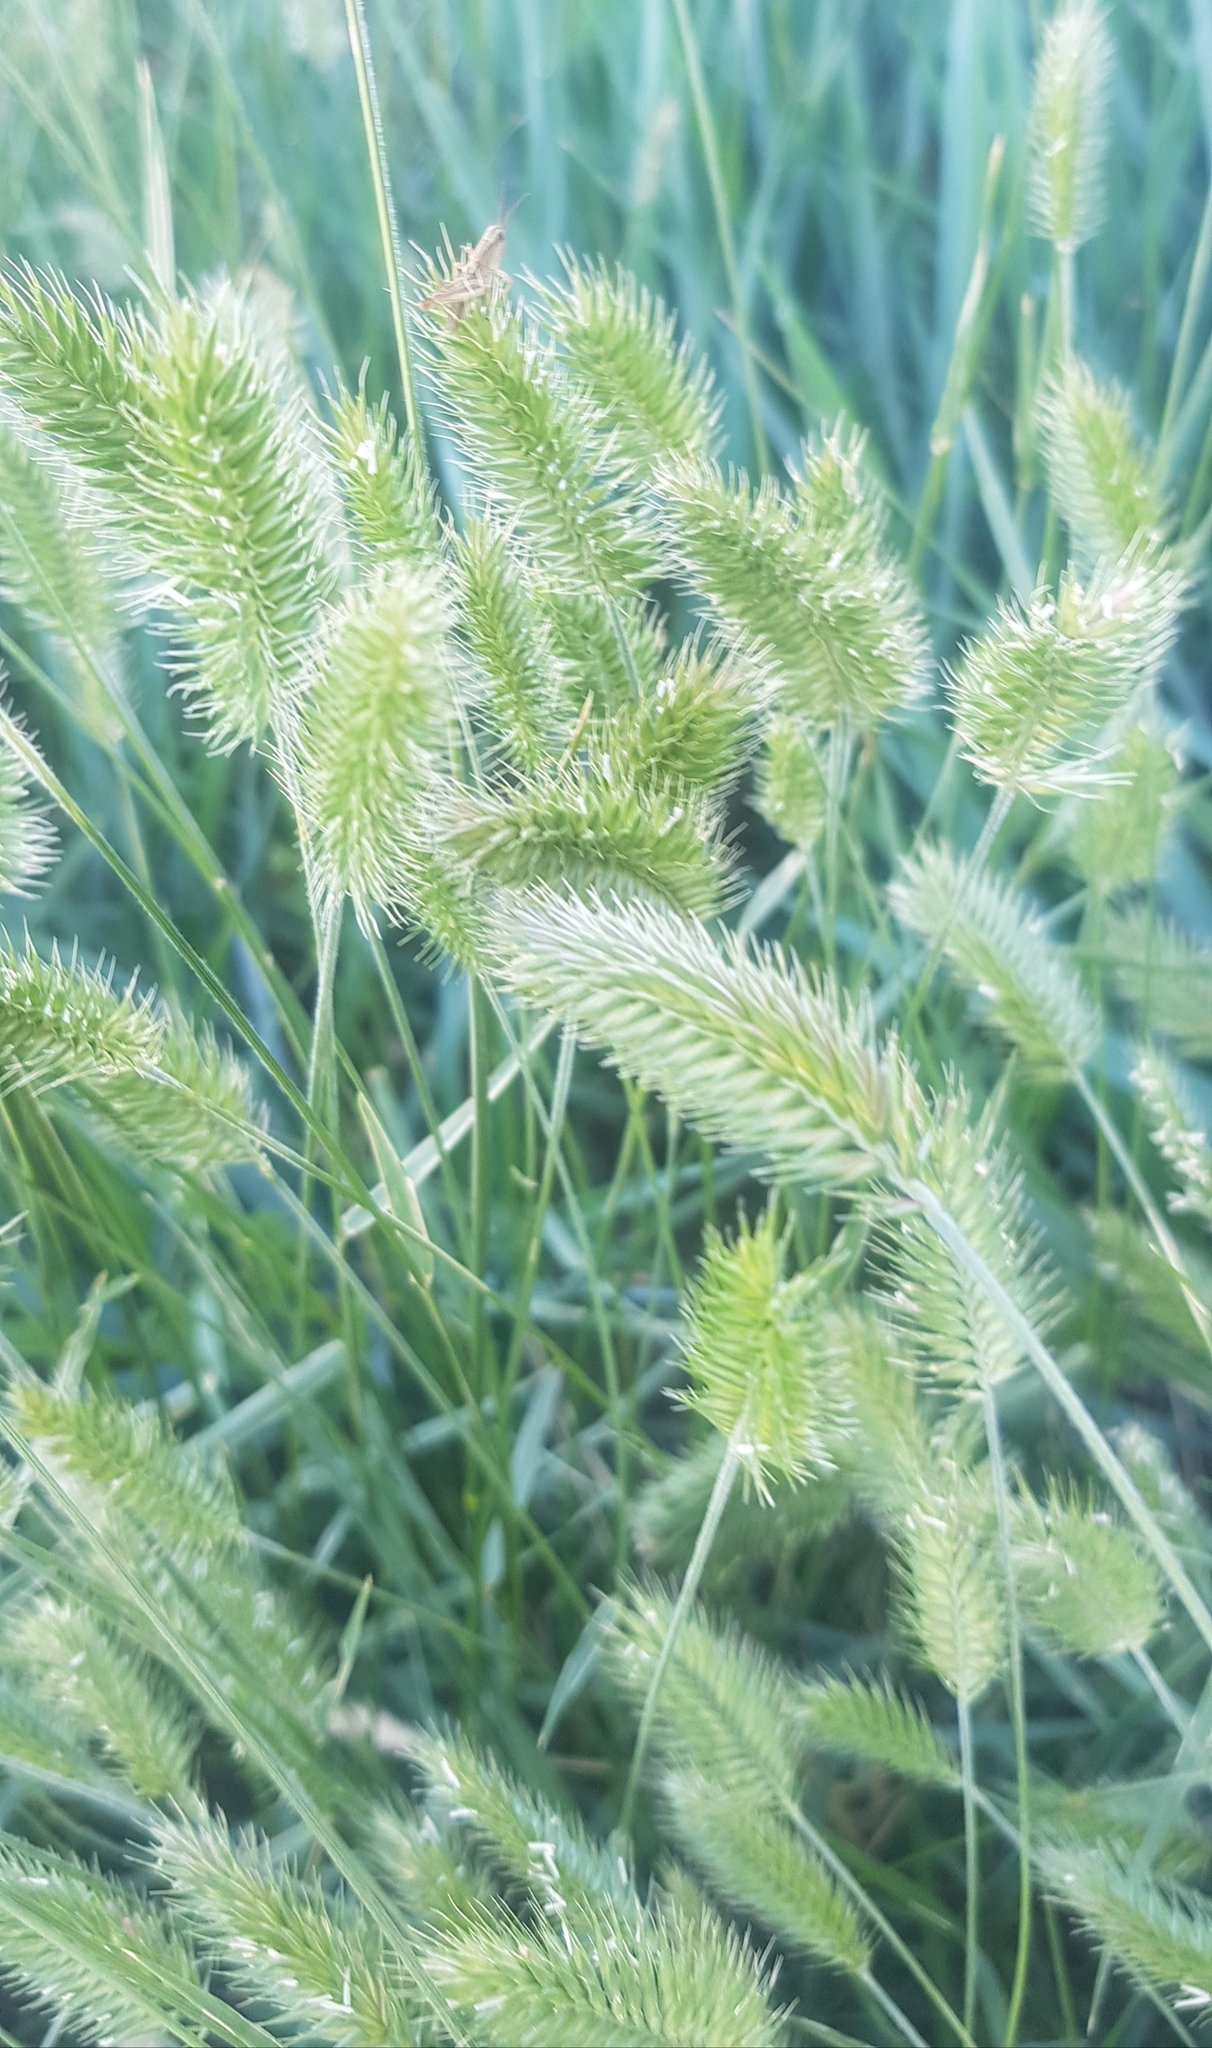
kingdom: Plantae
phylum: Tracheophyta
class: Liliopsida
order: Poales
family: Poaceae
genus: Agropyron
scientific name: Agropyron cristatum
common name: Crested wheatgrass
